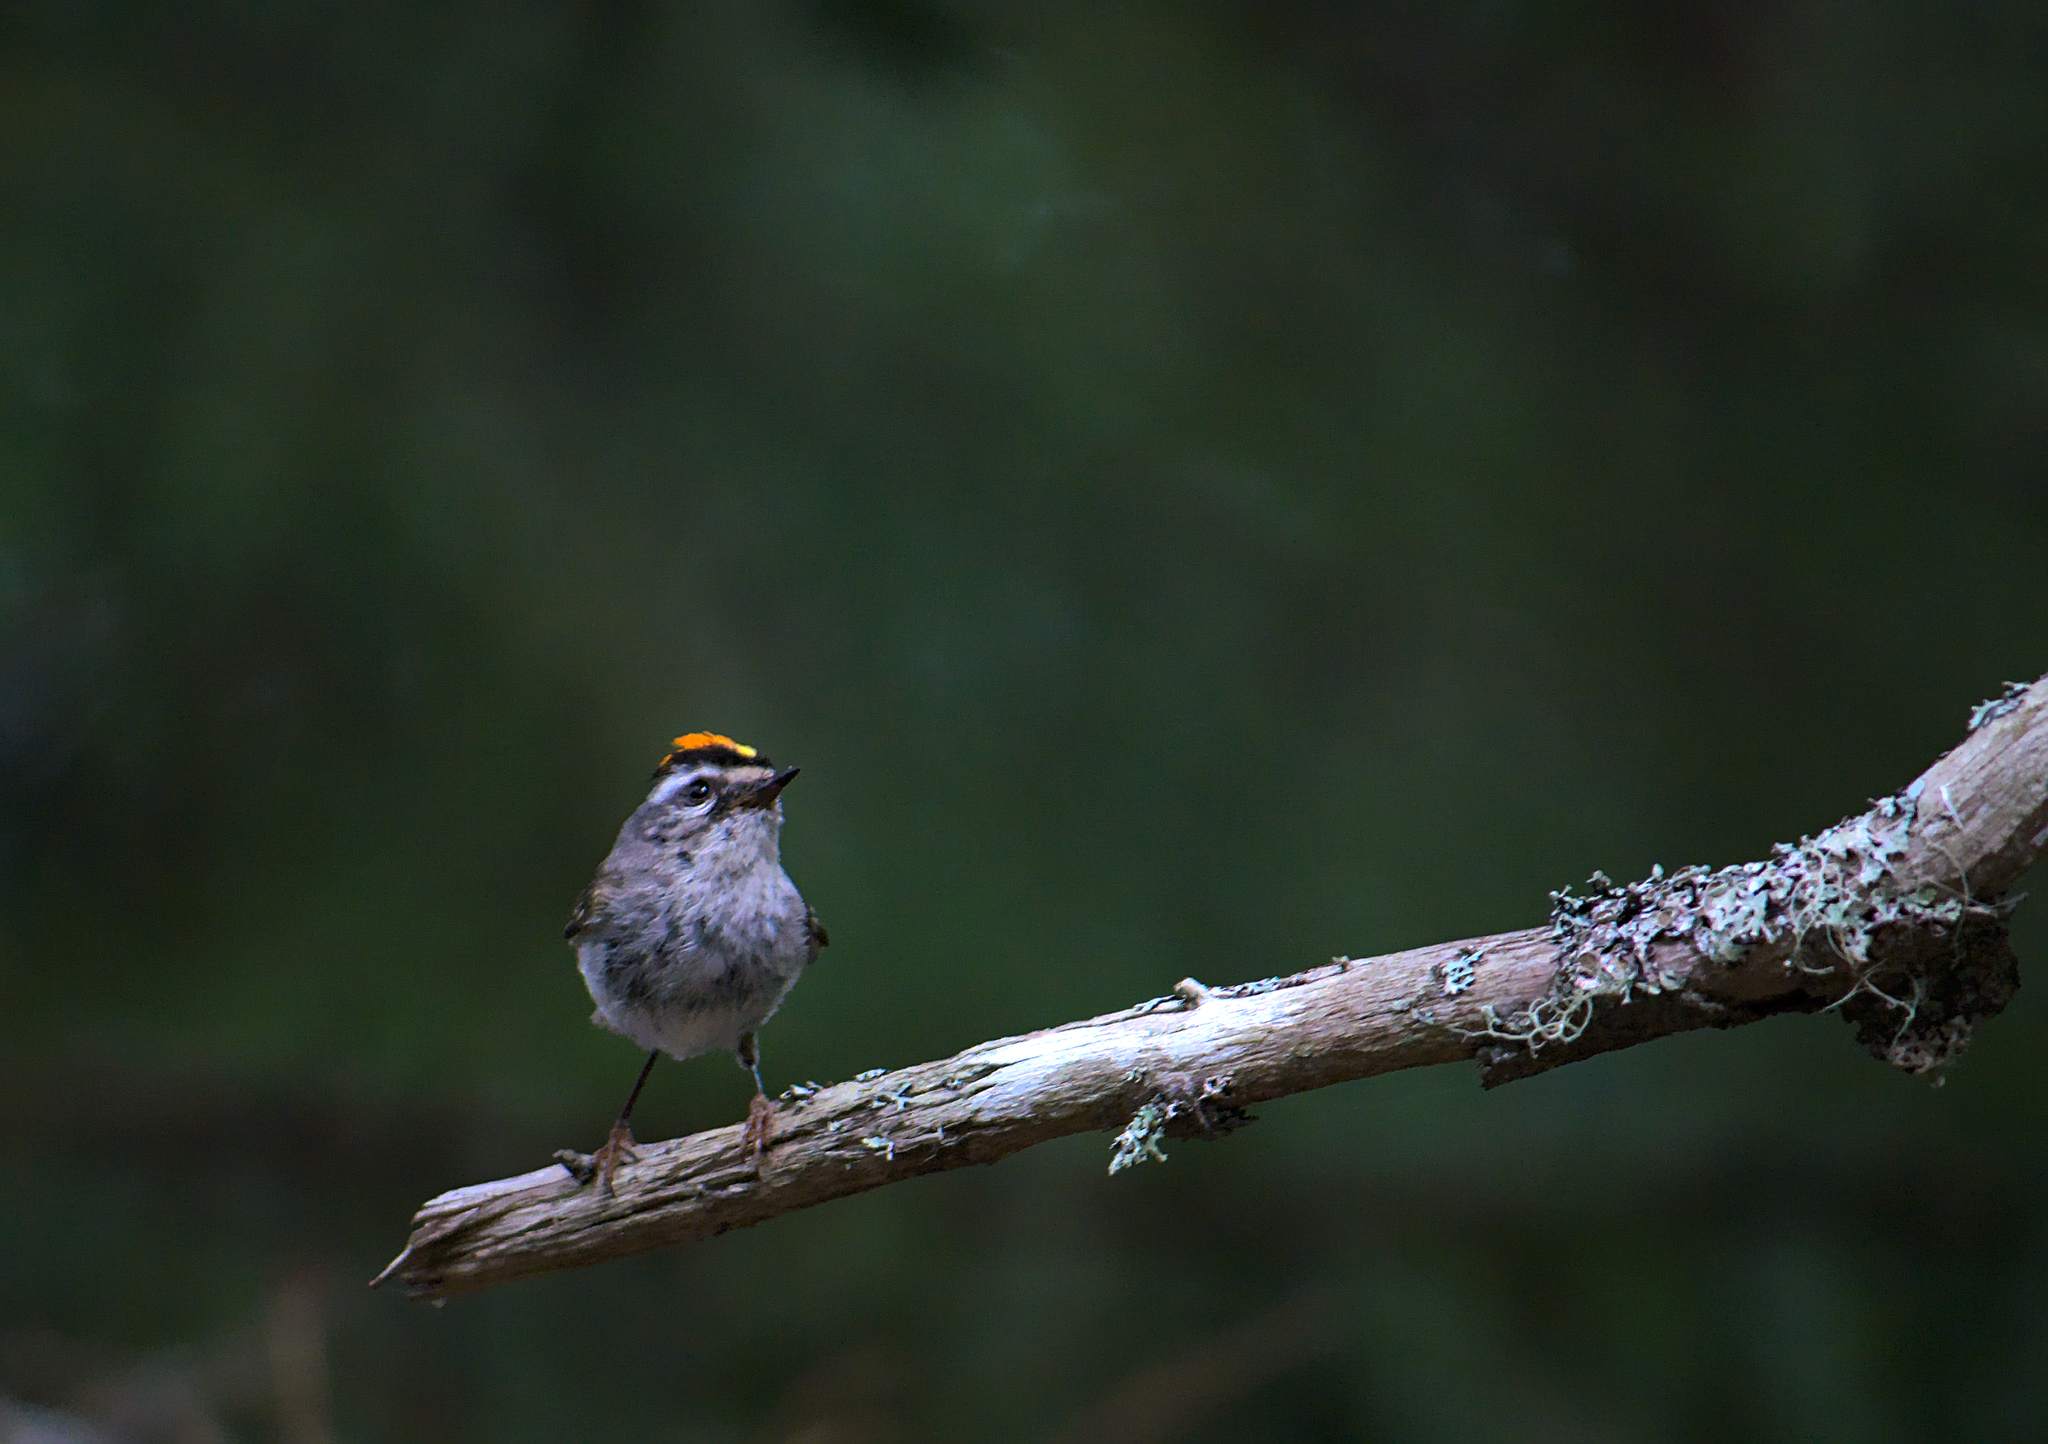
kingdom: Animalia
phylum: Chordata
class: Aves
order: Passeriformes
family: Regulidae
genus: Regulus
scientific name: Regulus satrapa
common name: Golden-crowned kinglet
